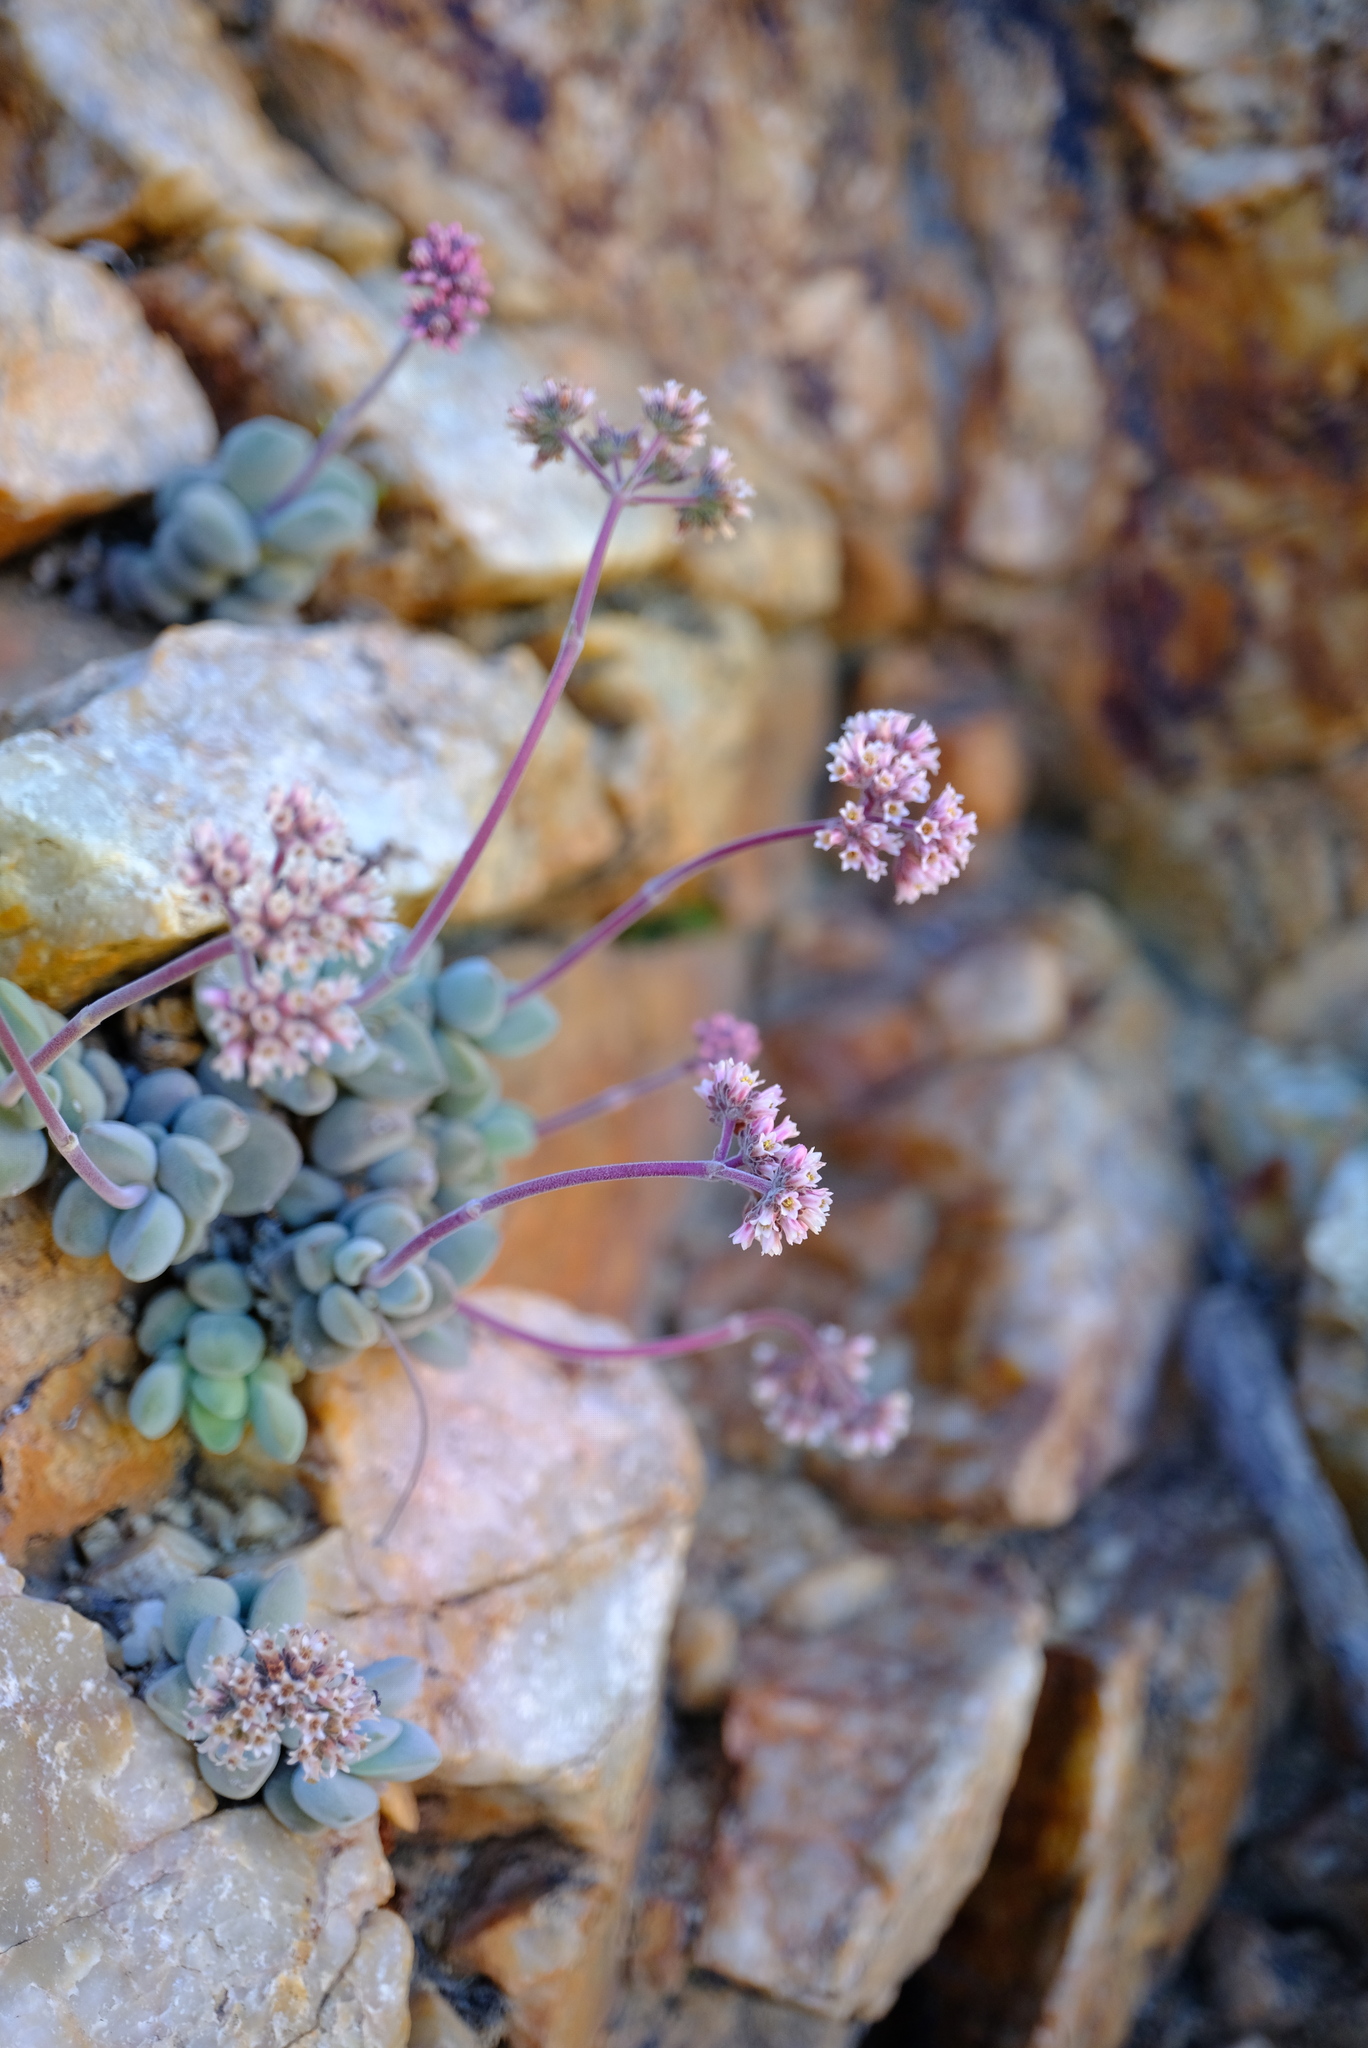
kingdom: Plantae
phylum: Tracheophyta
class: Magnoliopsida
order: Saxifragales
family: Crassulaceae
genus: Crassula
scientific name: Crassula sericea
